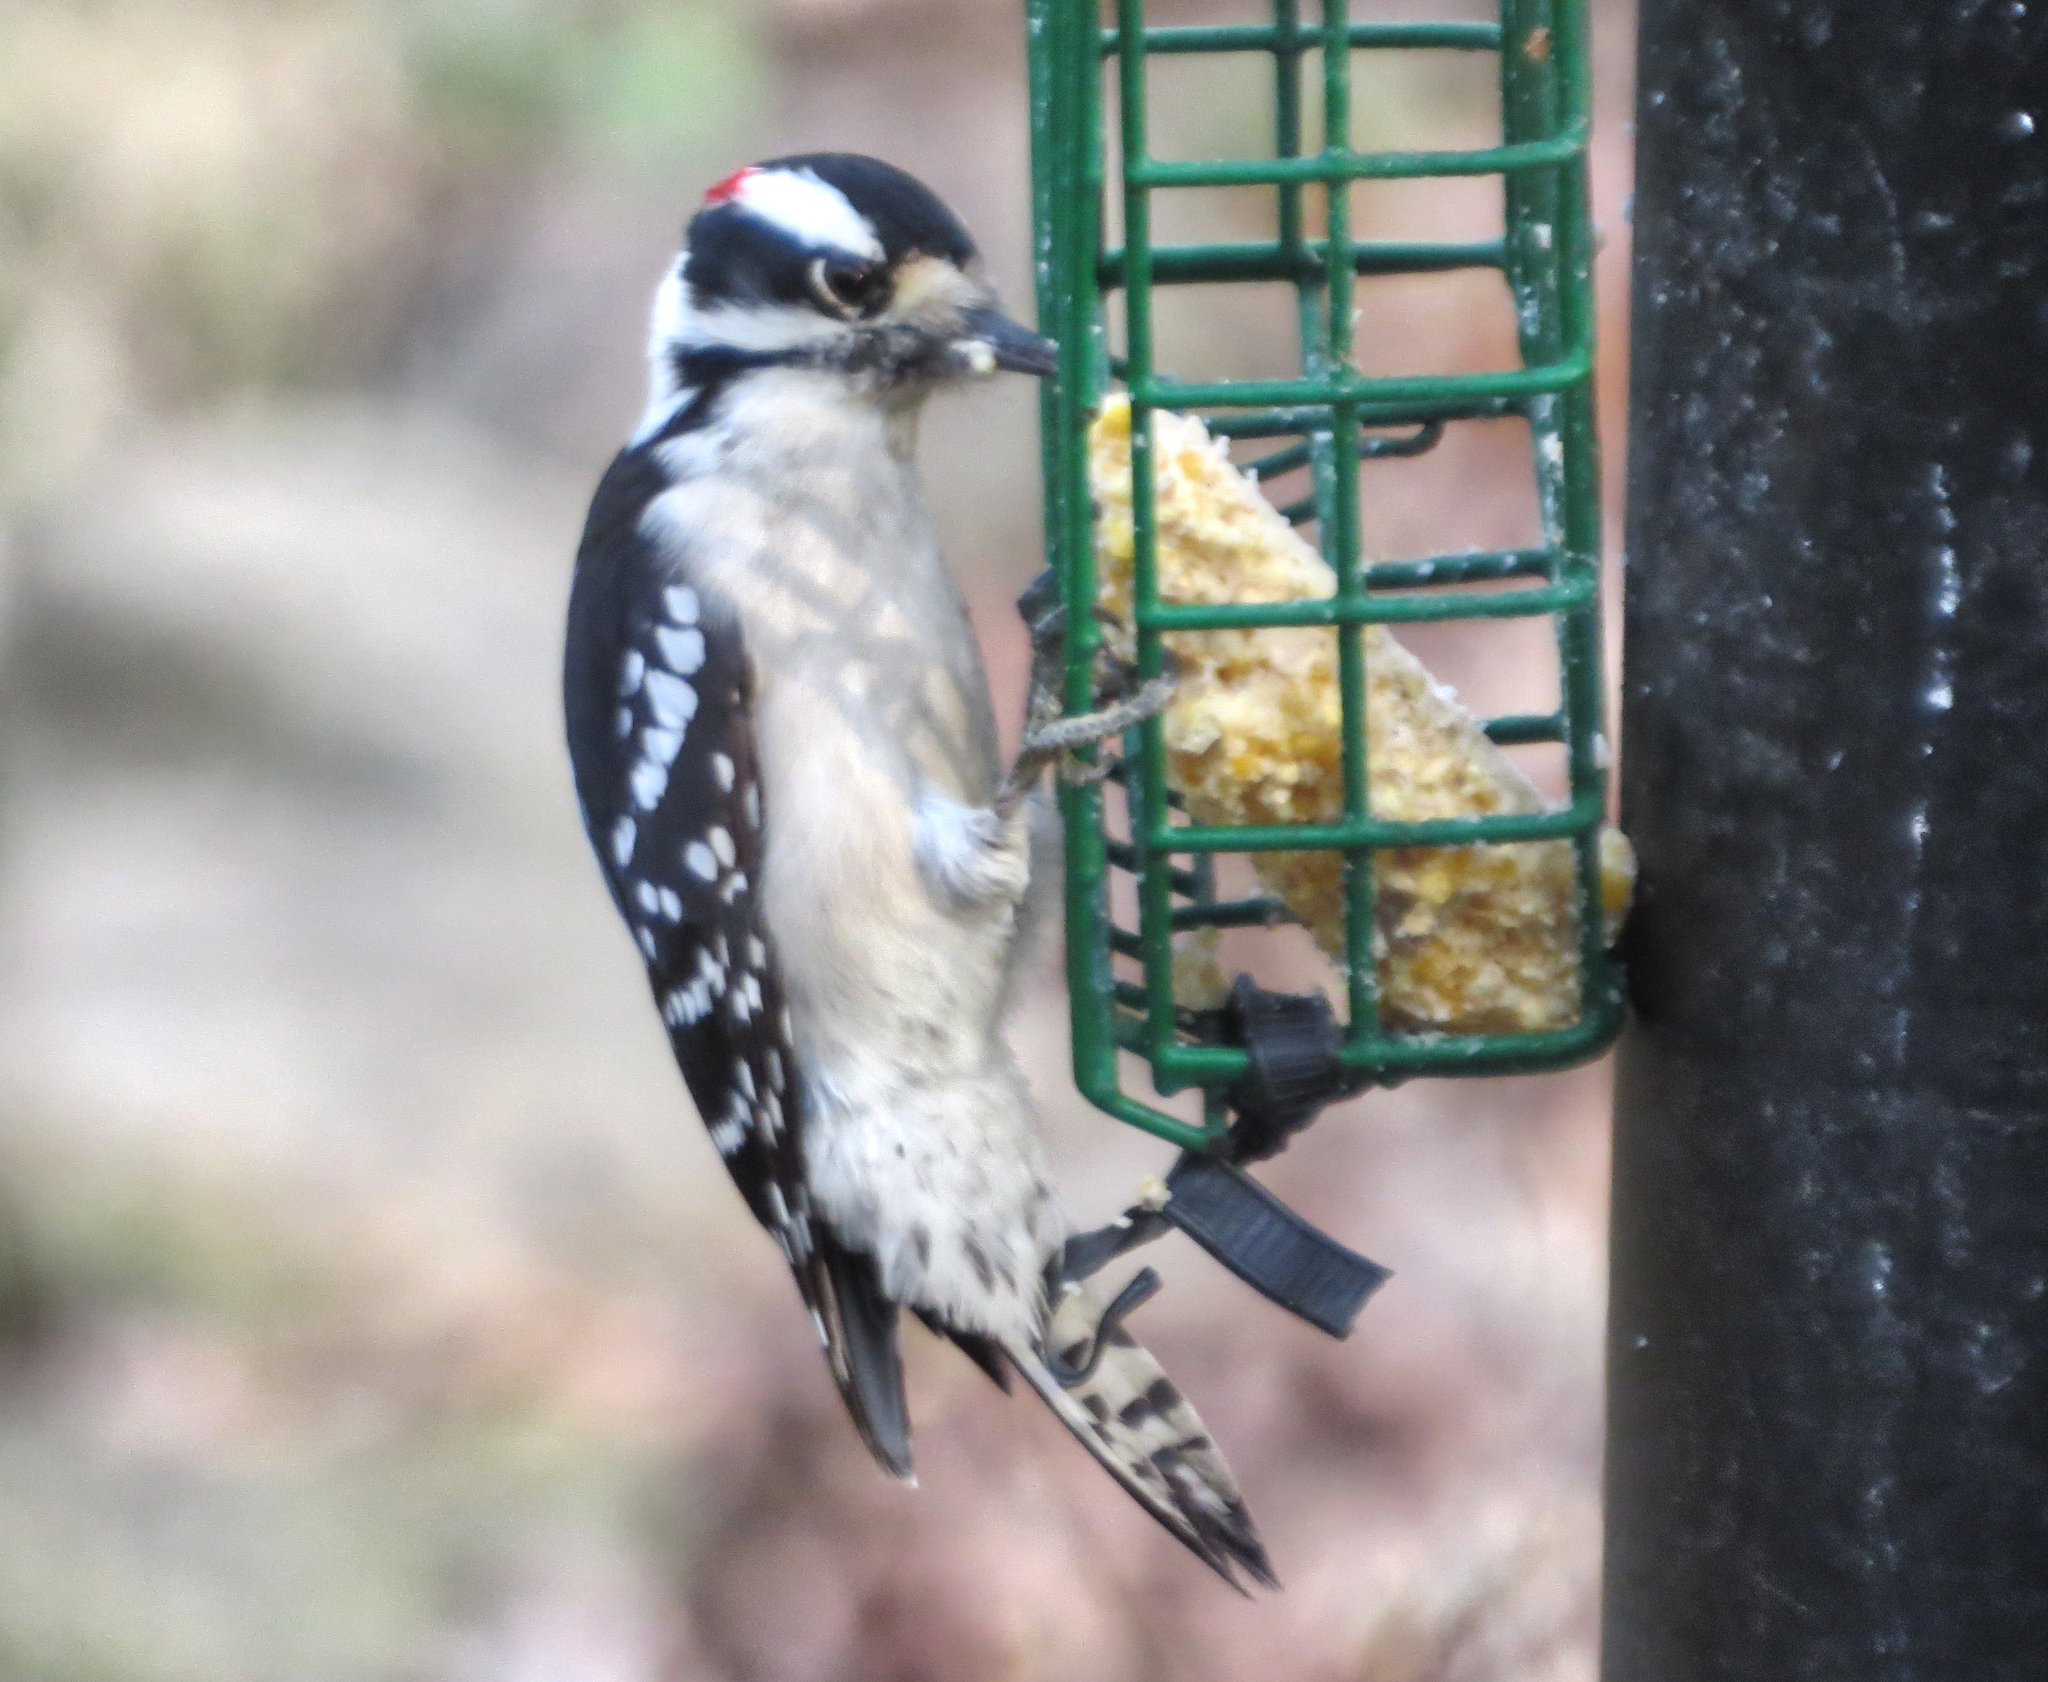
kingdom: Animalia
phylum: Chordata
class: Aves
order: Piciformes
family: Picidae
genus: Dryobates
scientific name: Dryobates pubescens
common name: Downy woodpecker
